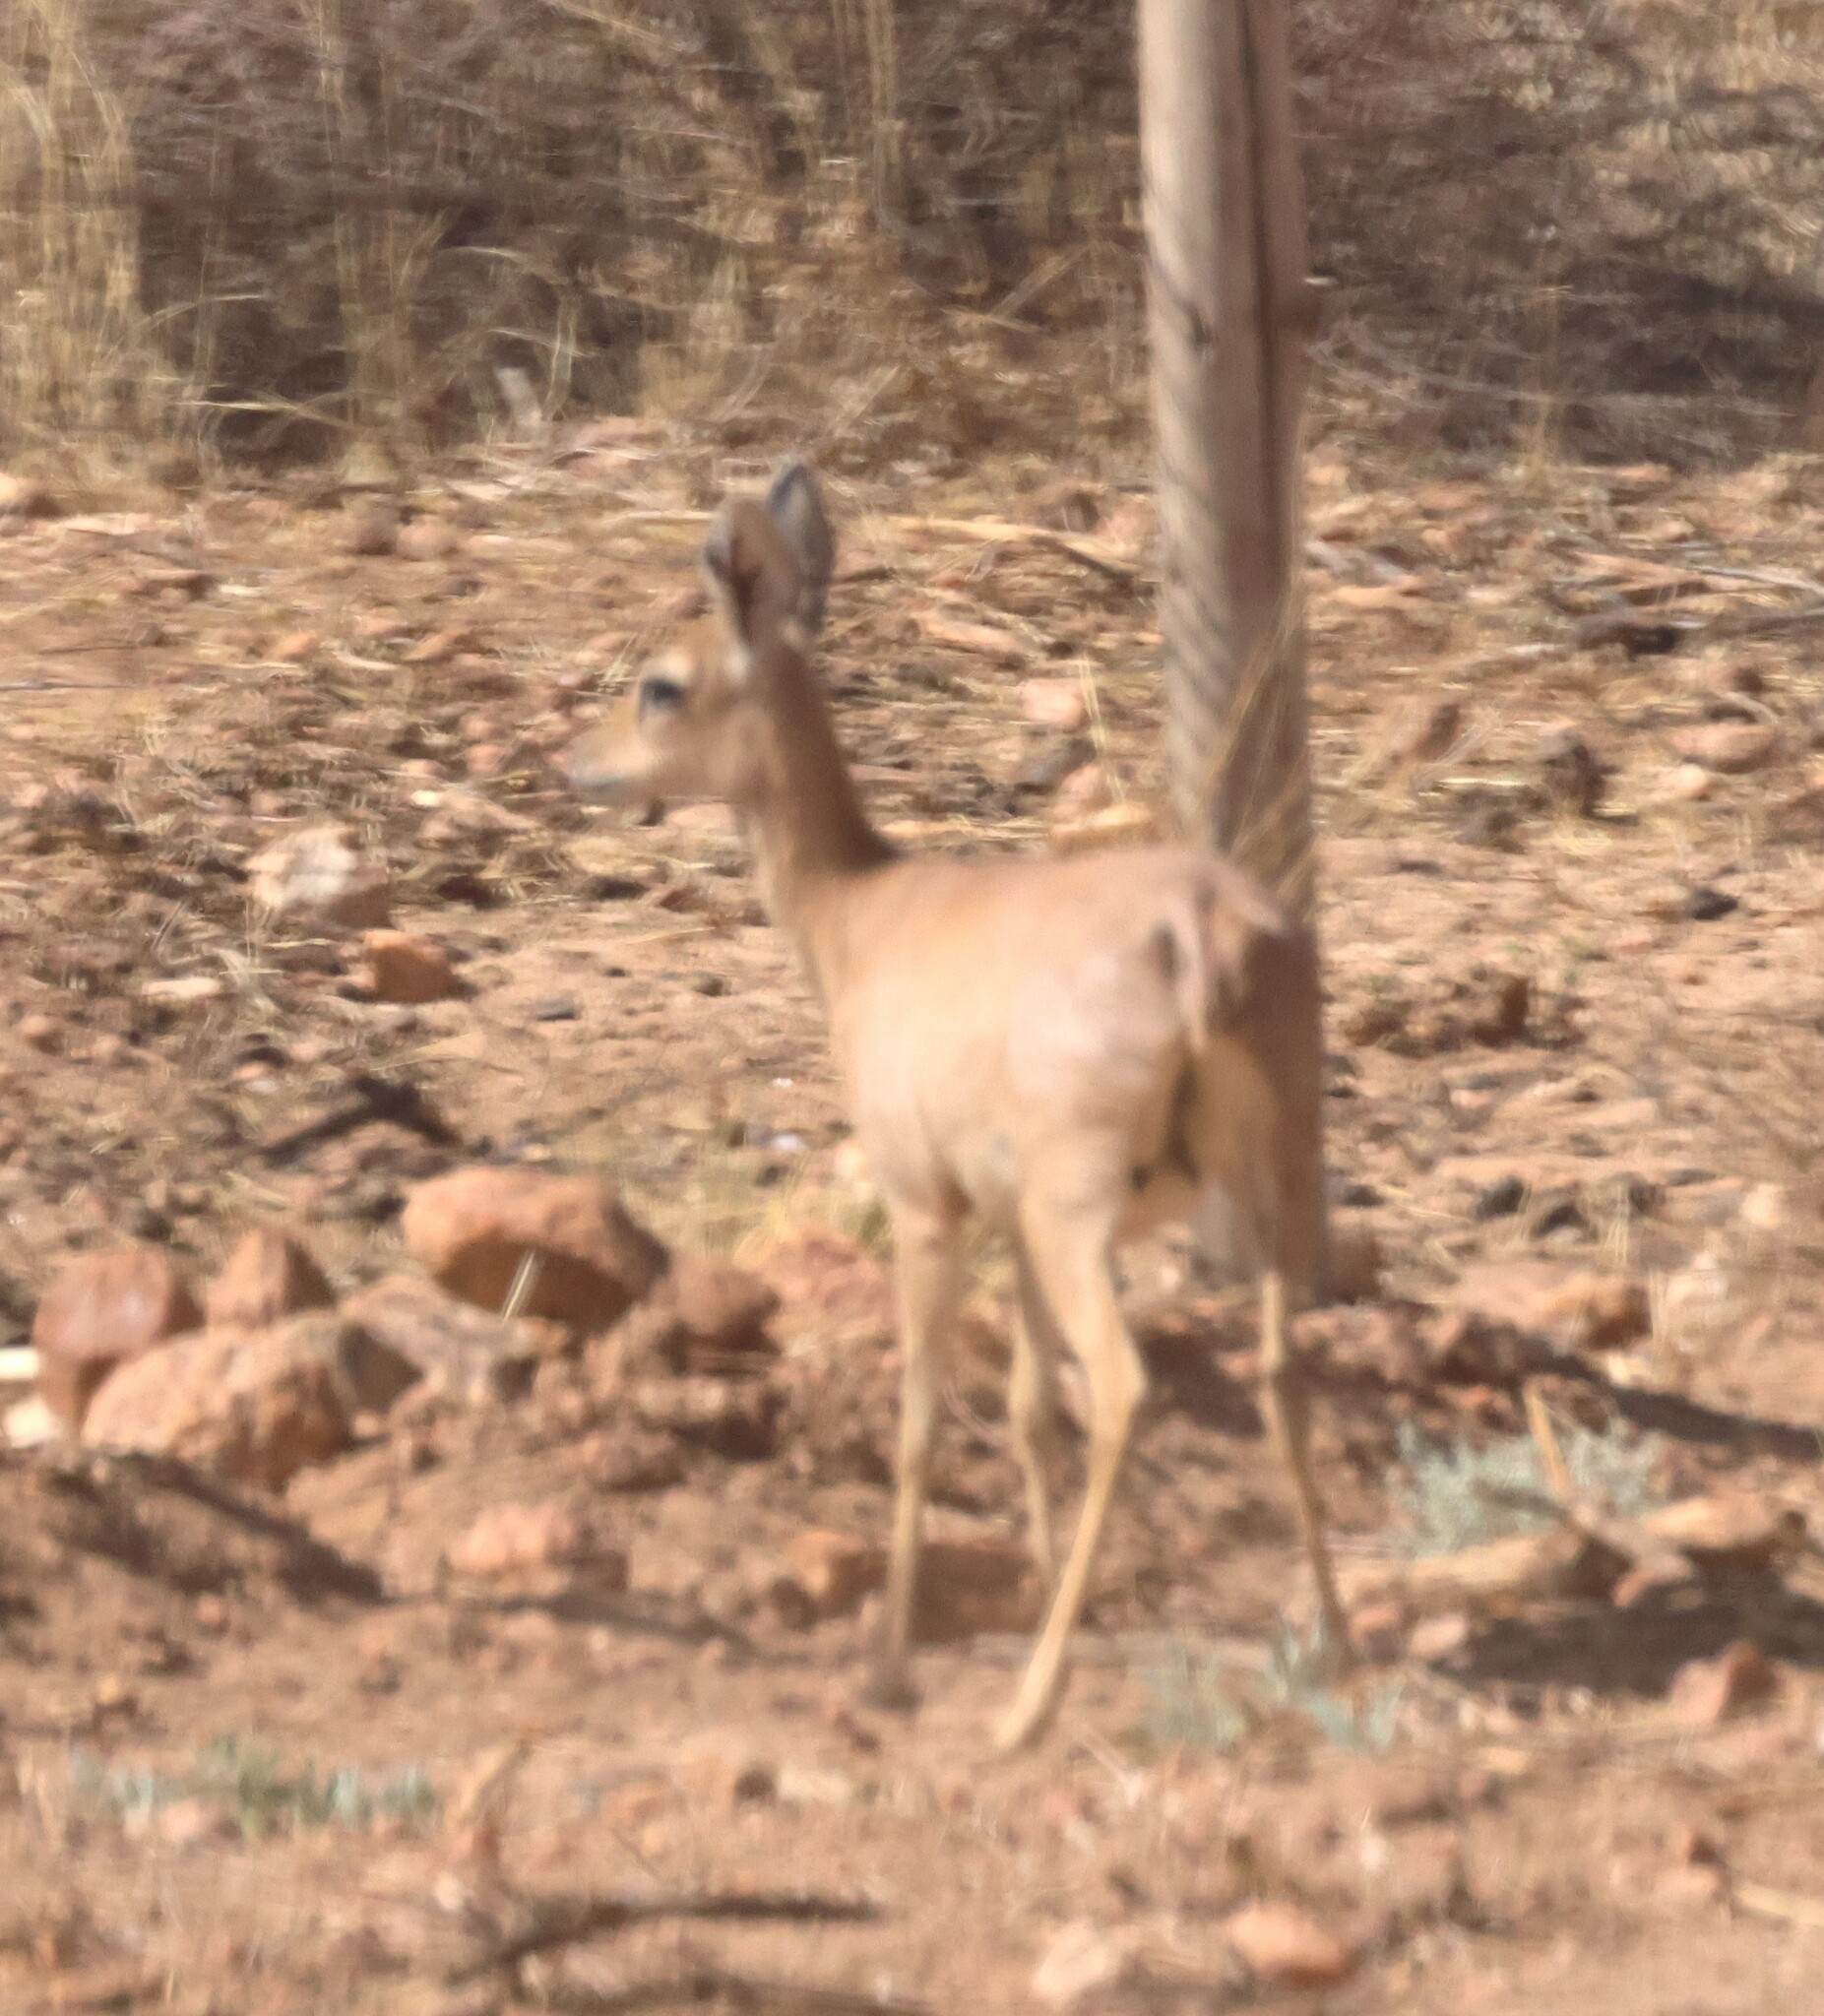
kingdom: Animalia
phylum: Chordata
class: Mammalia
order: Artiodactyla
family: Bovidae
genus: Raphicerus
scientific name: Raphicerus campestris
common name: Steenbok
